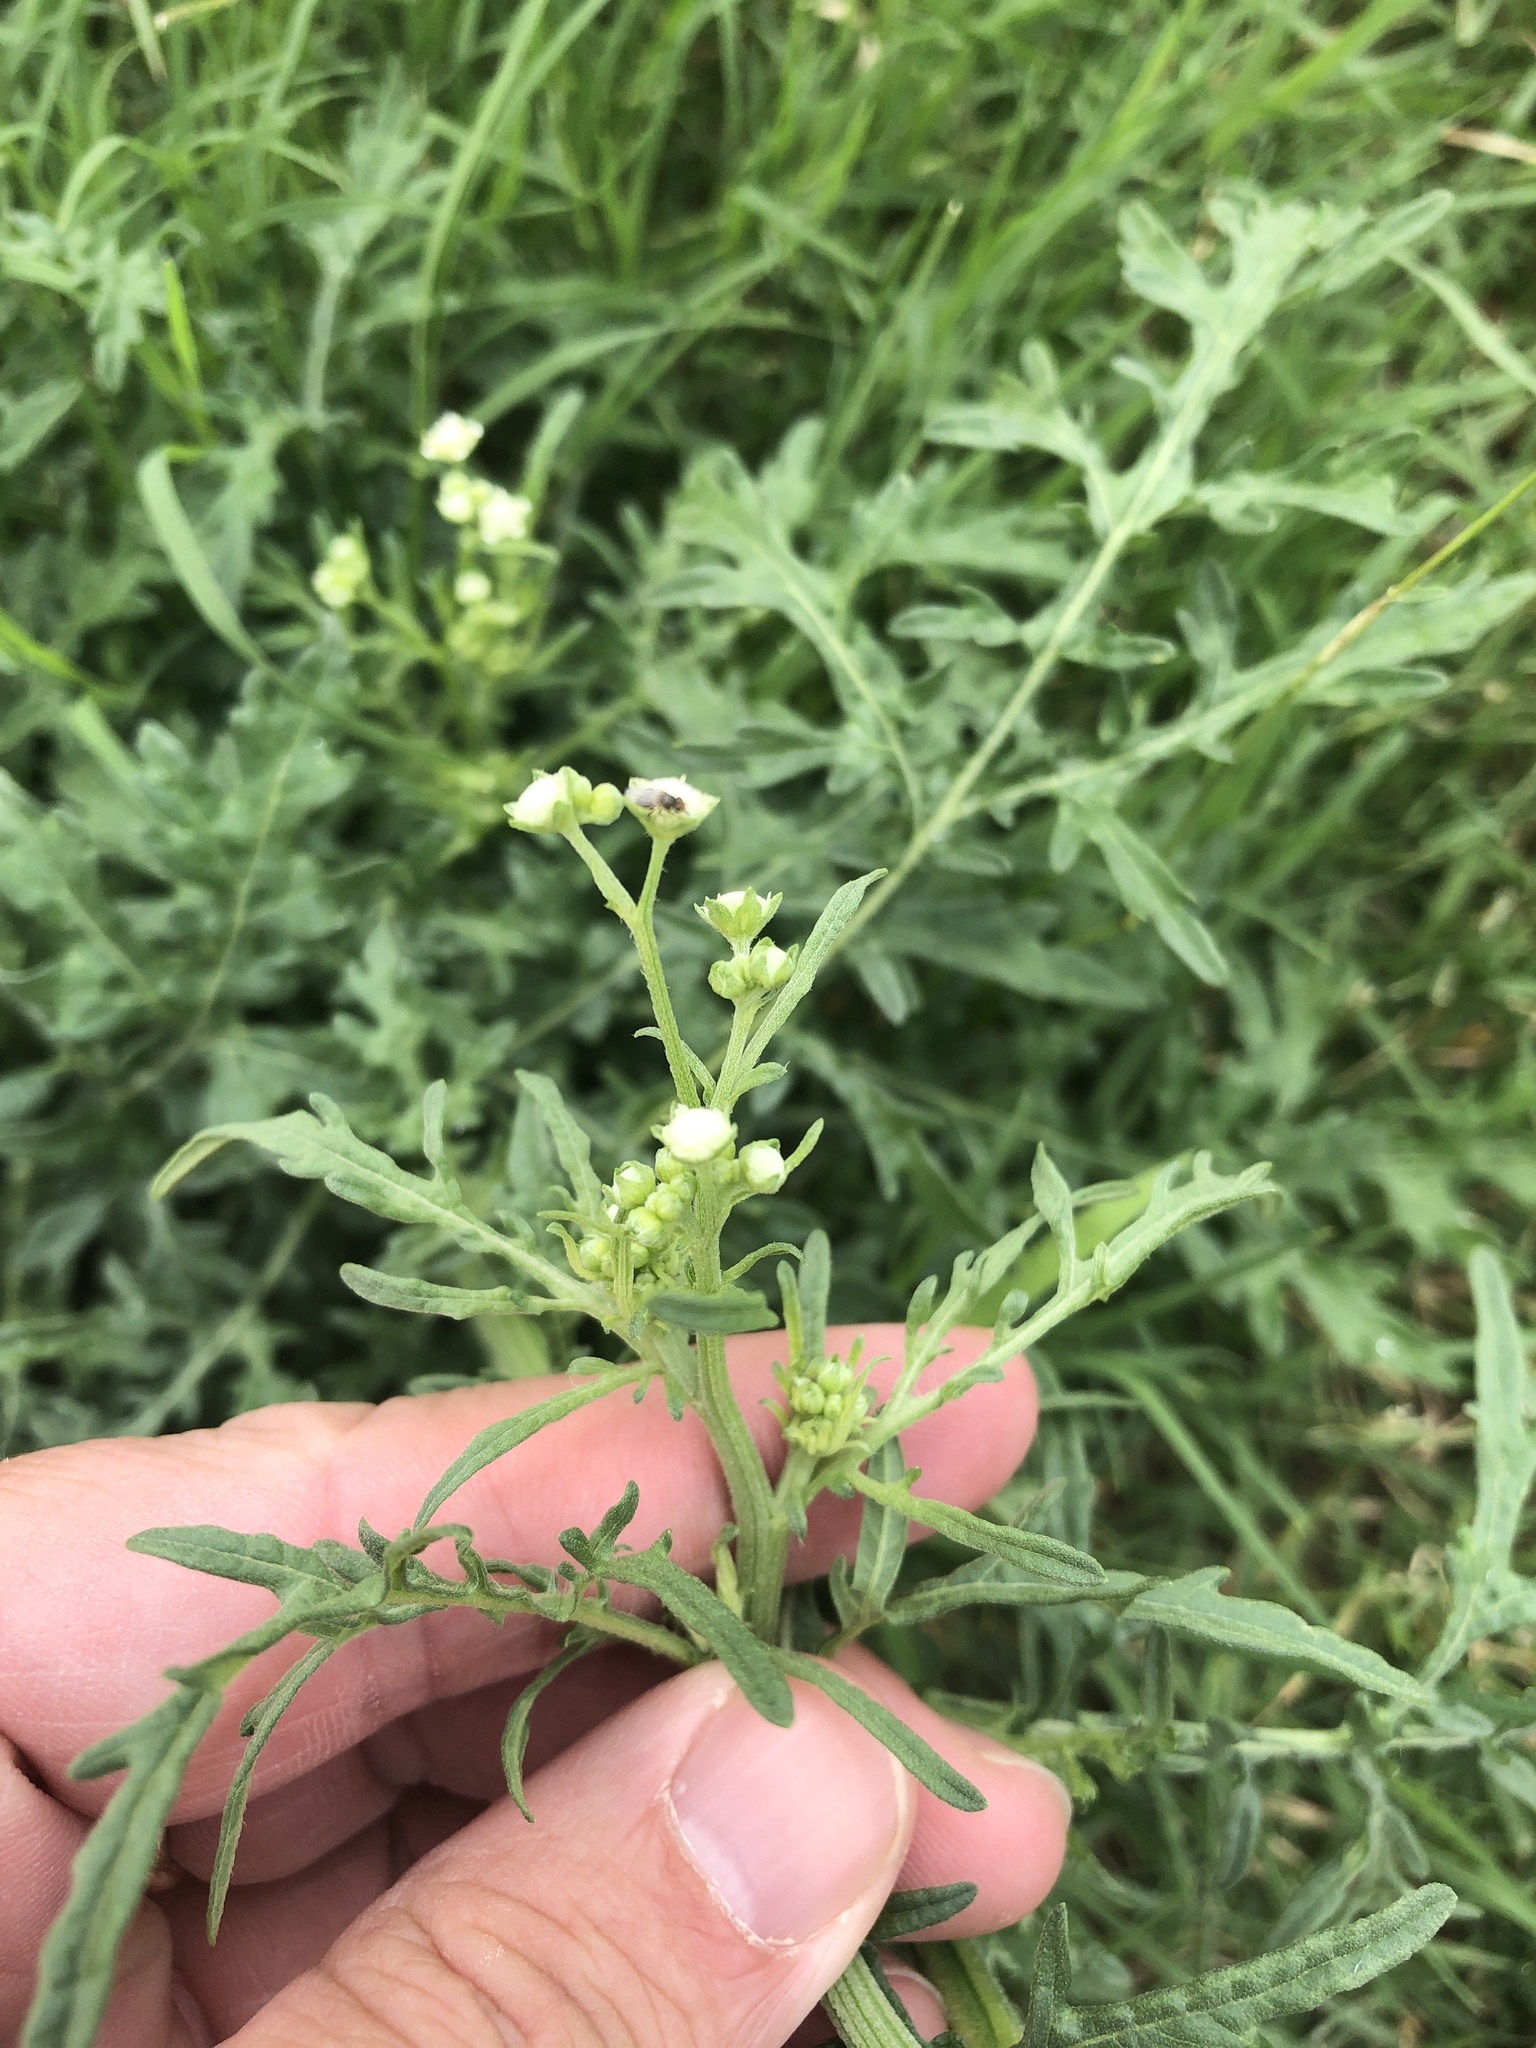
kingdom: Plantae
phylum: Tracheophyta
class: Magnoliopsida
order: Asterales
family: Asteraceae
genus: Parthenium
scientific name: Parthenium hysterophorus
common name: Santa maria feverfew
